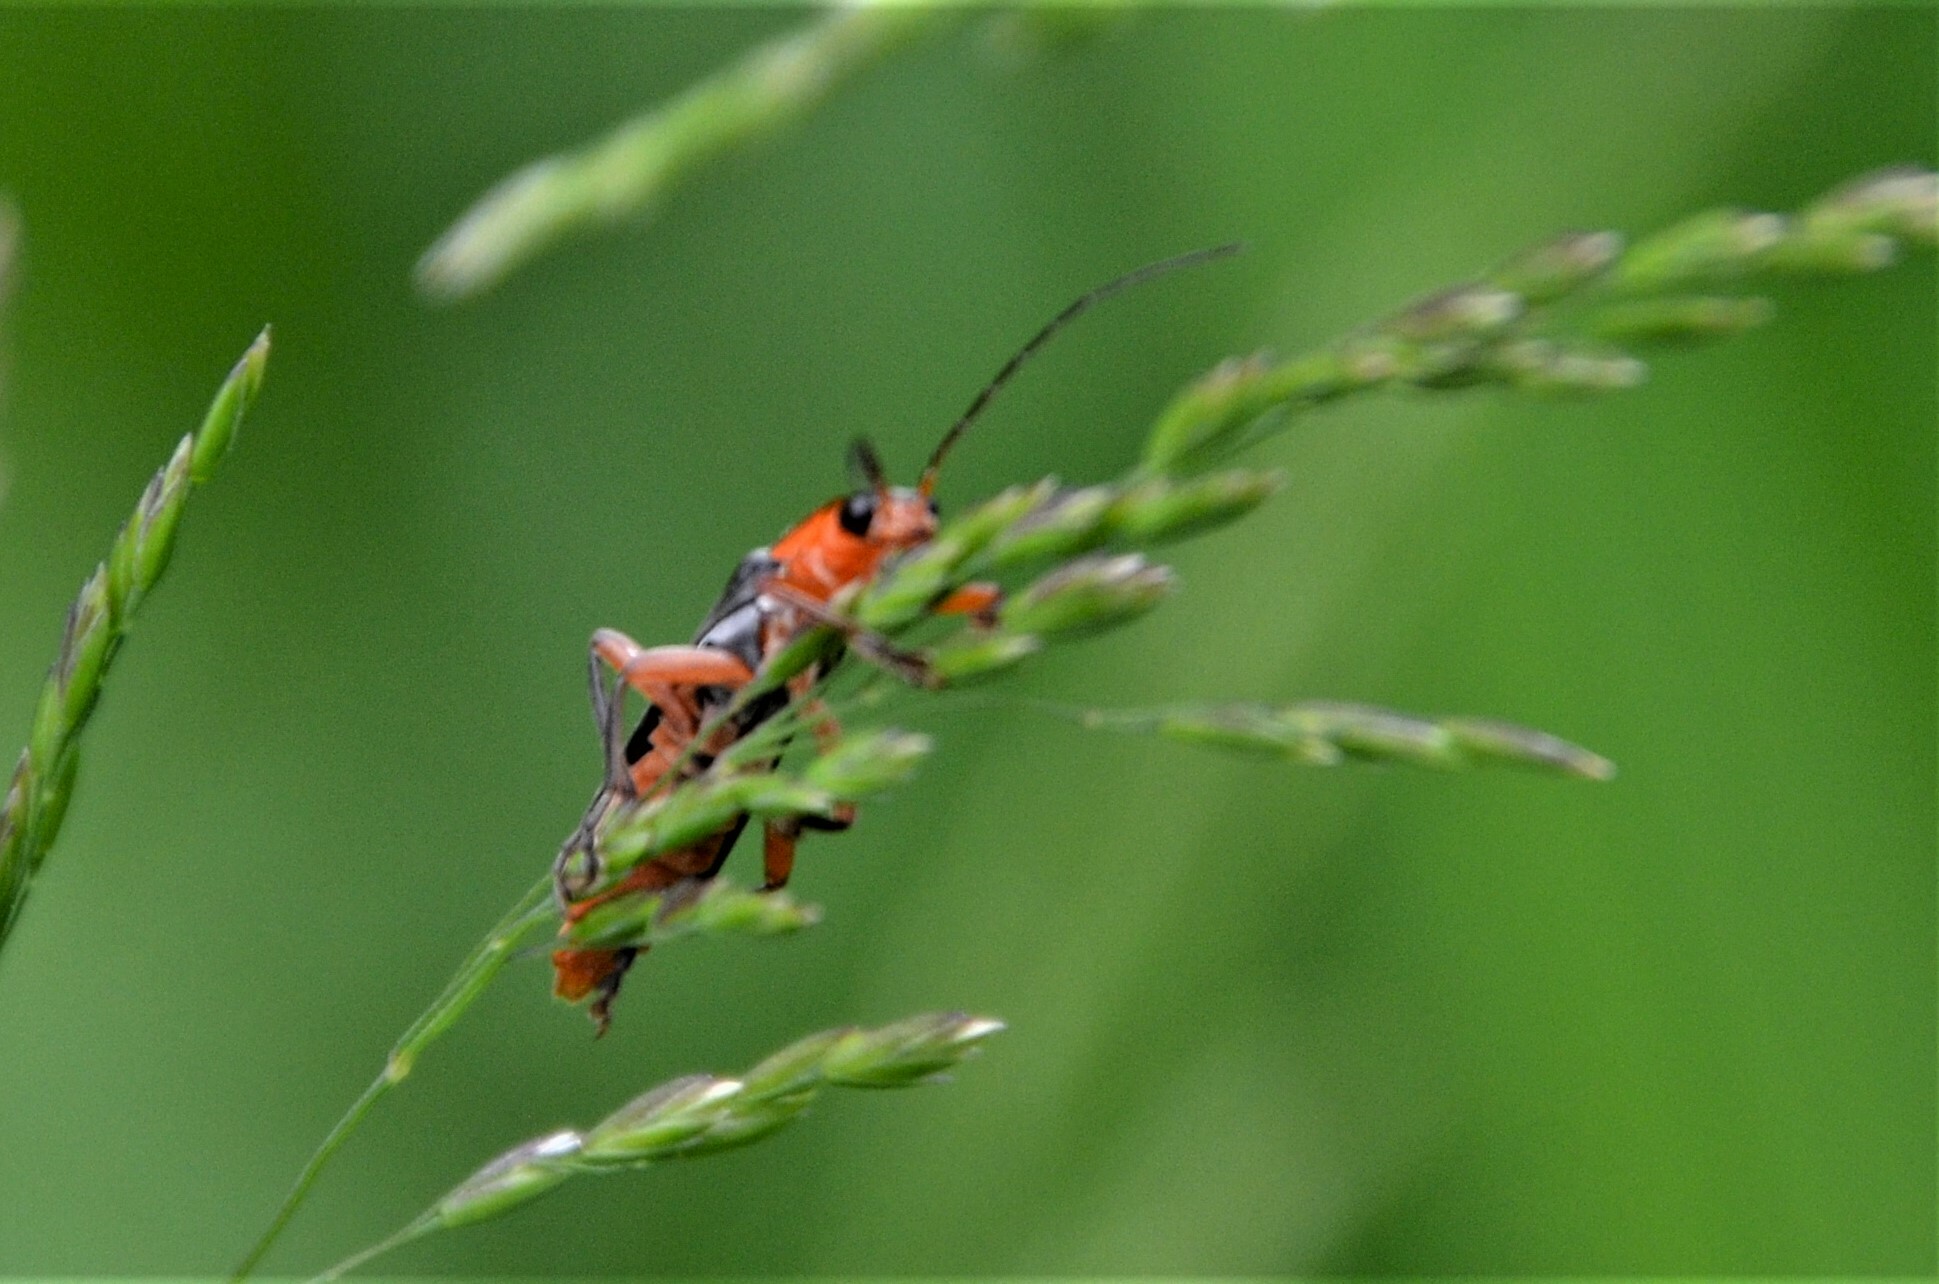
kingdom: Animalia
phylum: Arthropoda
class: Insecta
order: Coleoptera
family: Cantharidae
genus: Cantharis
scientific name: Cantharis pellucida
